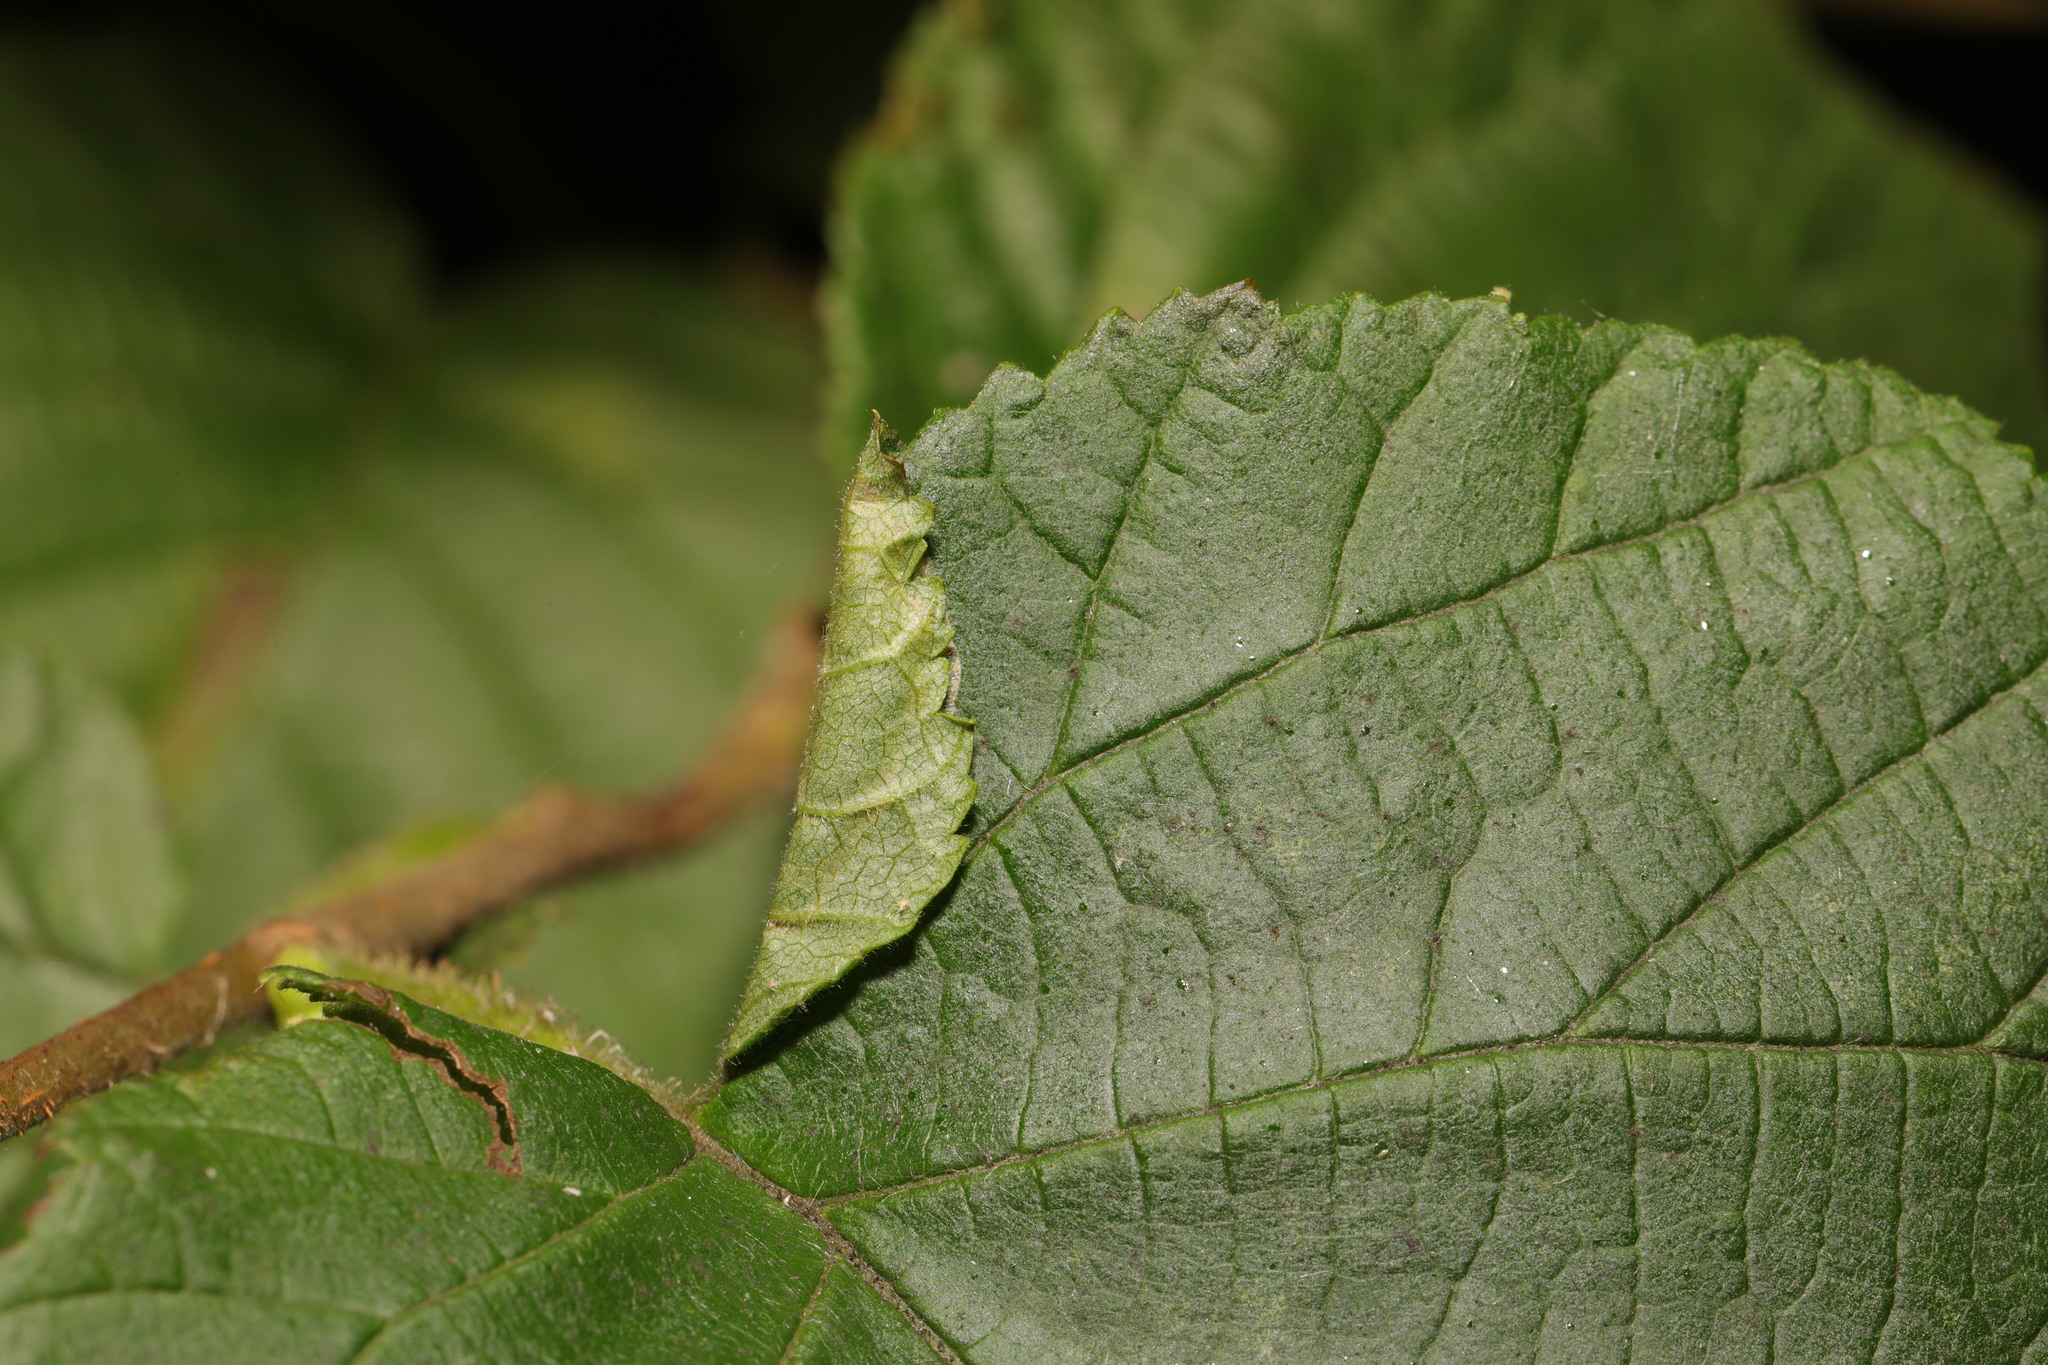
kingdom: Animalia
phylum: Arthropoda
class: Insecta
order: Lepidoptera
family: Gracillariidae
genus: Parornix
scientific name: Parornix devoniella
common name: Hazel slender
